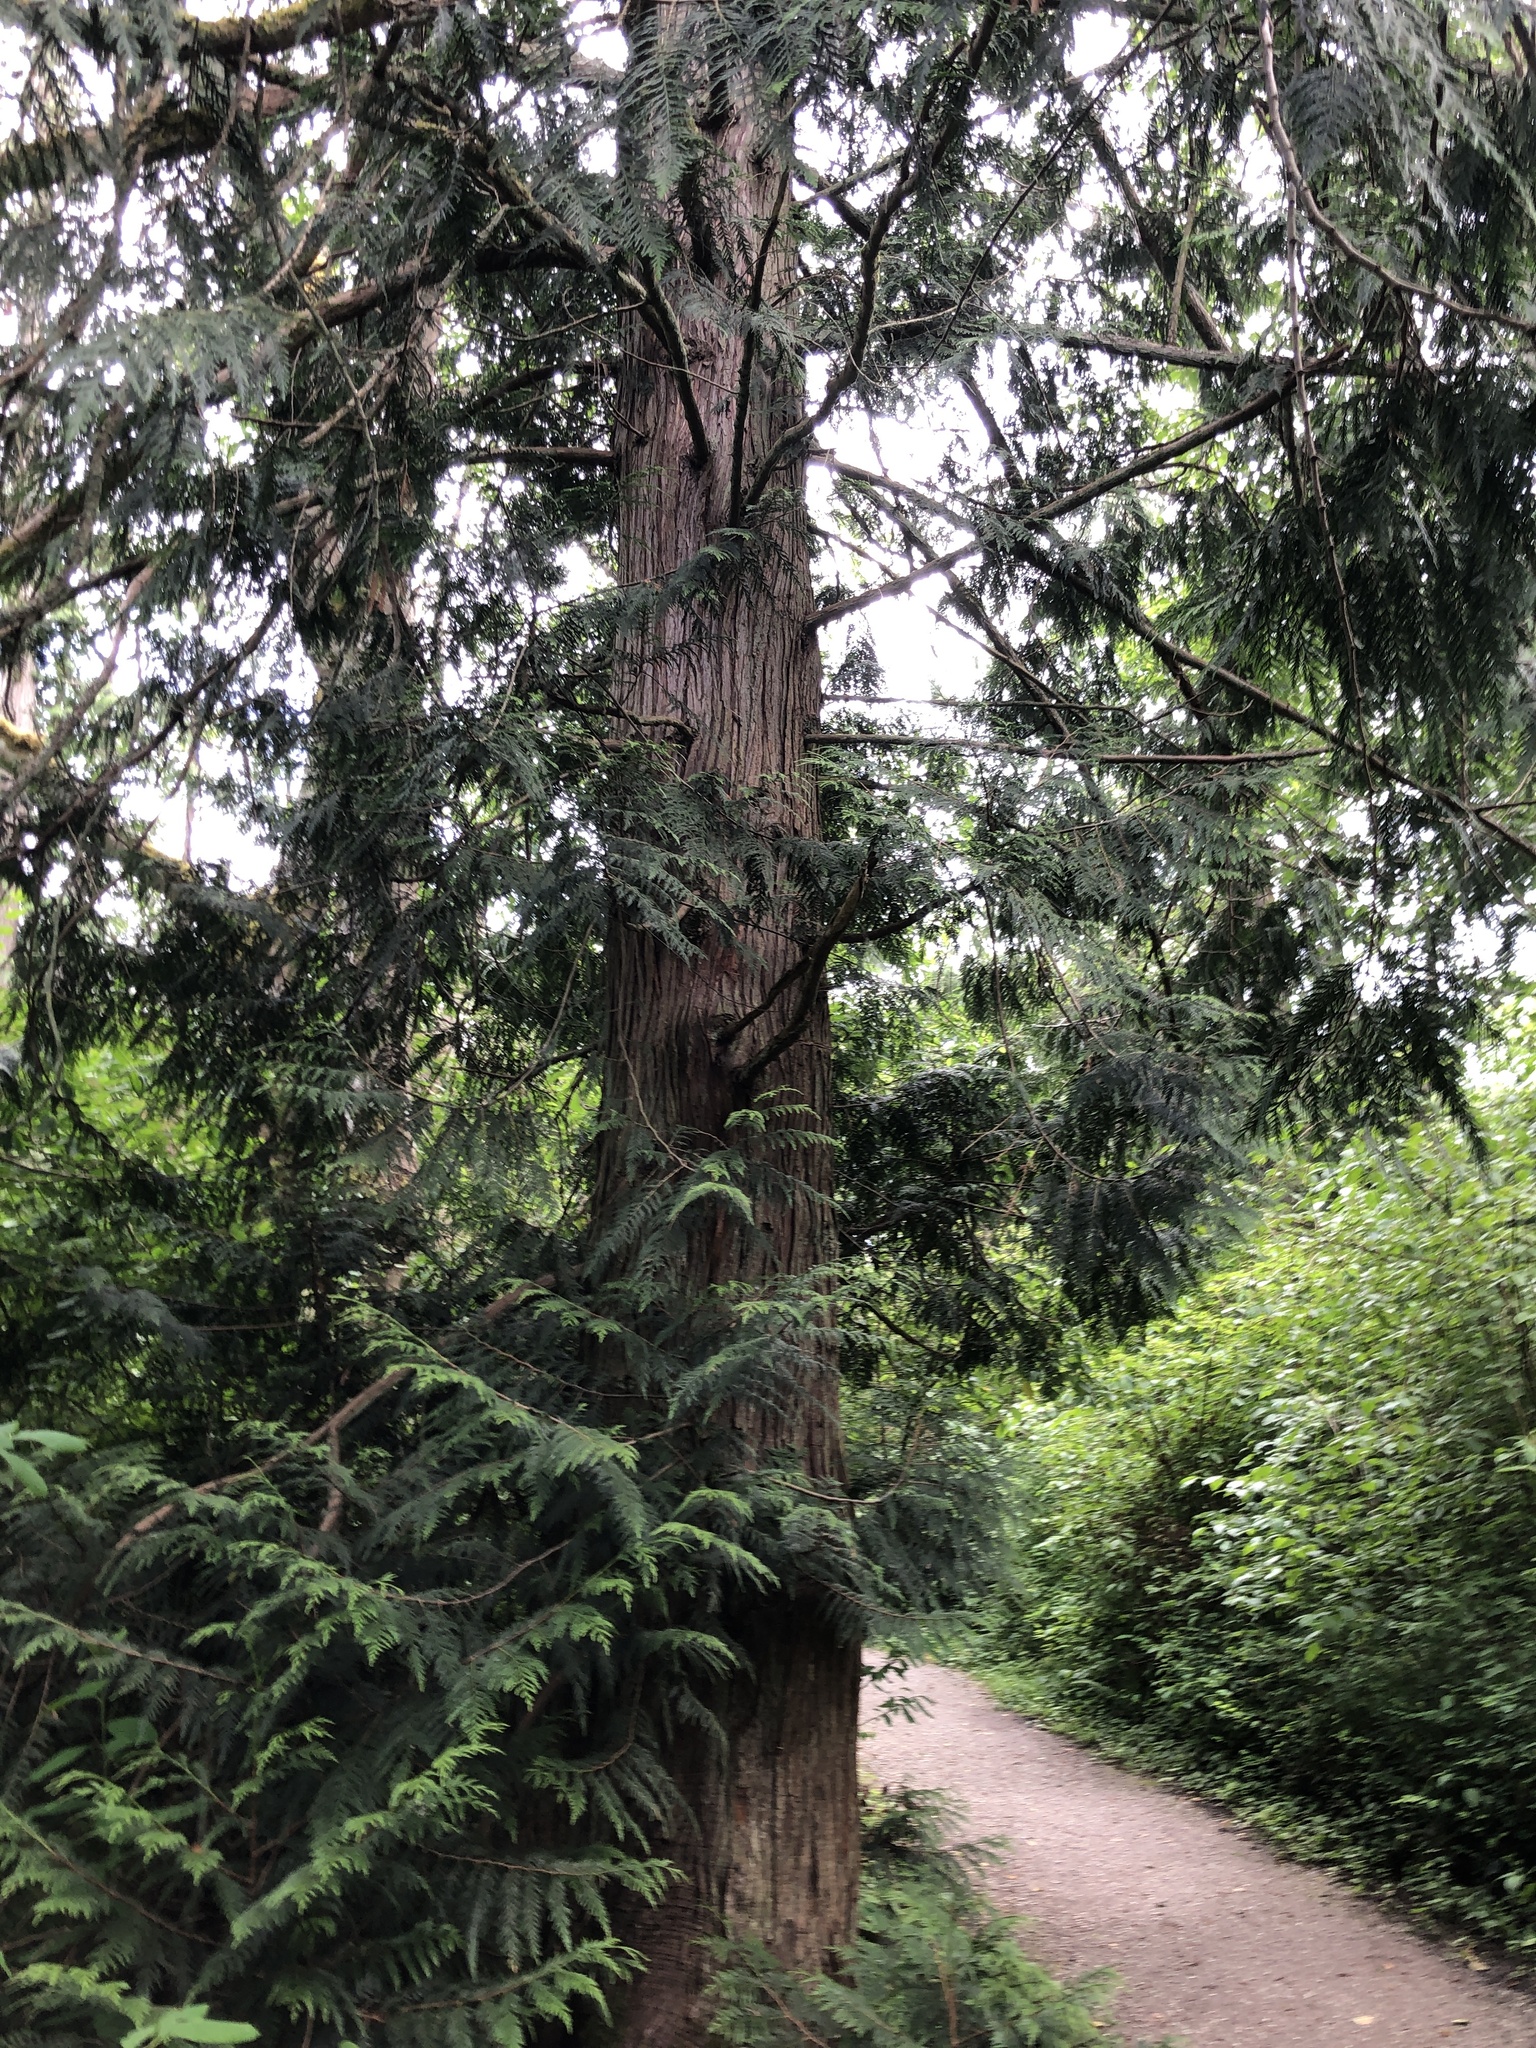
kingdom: Plantae
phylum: Tracheophyta
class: Pinopsida
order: Pinales
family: Cupressaceae
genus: Thuja
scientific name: Thuja plicata
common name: Western red-cedar
